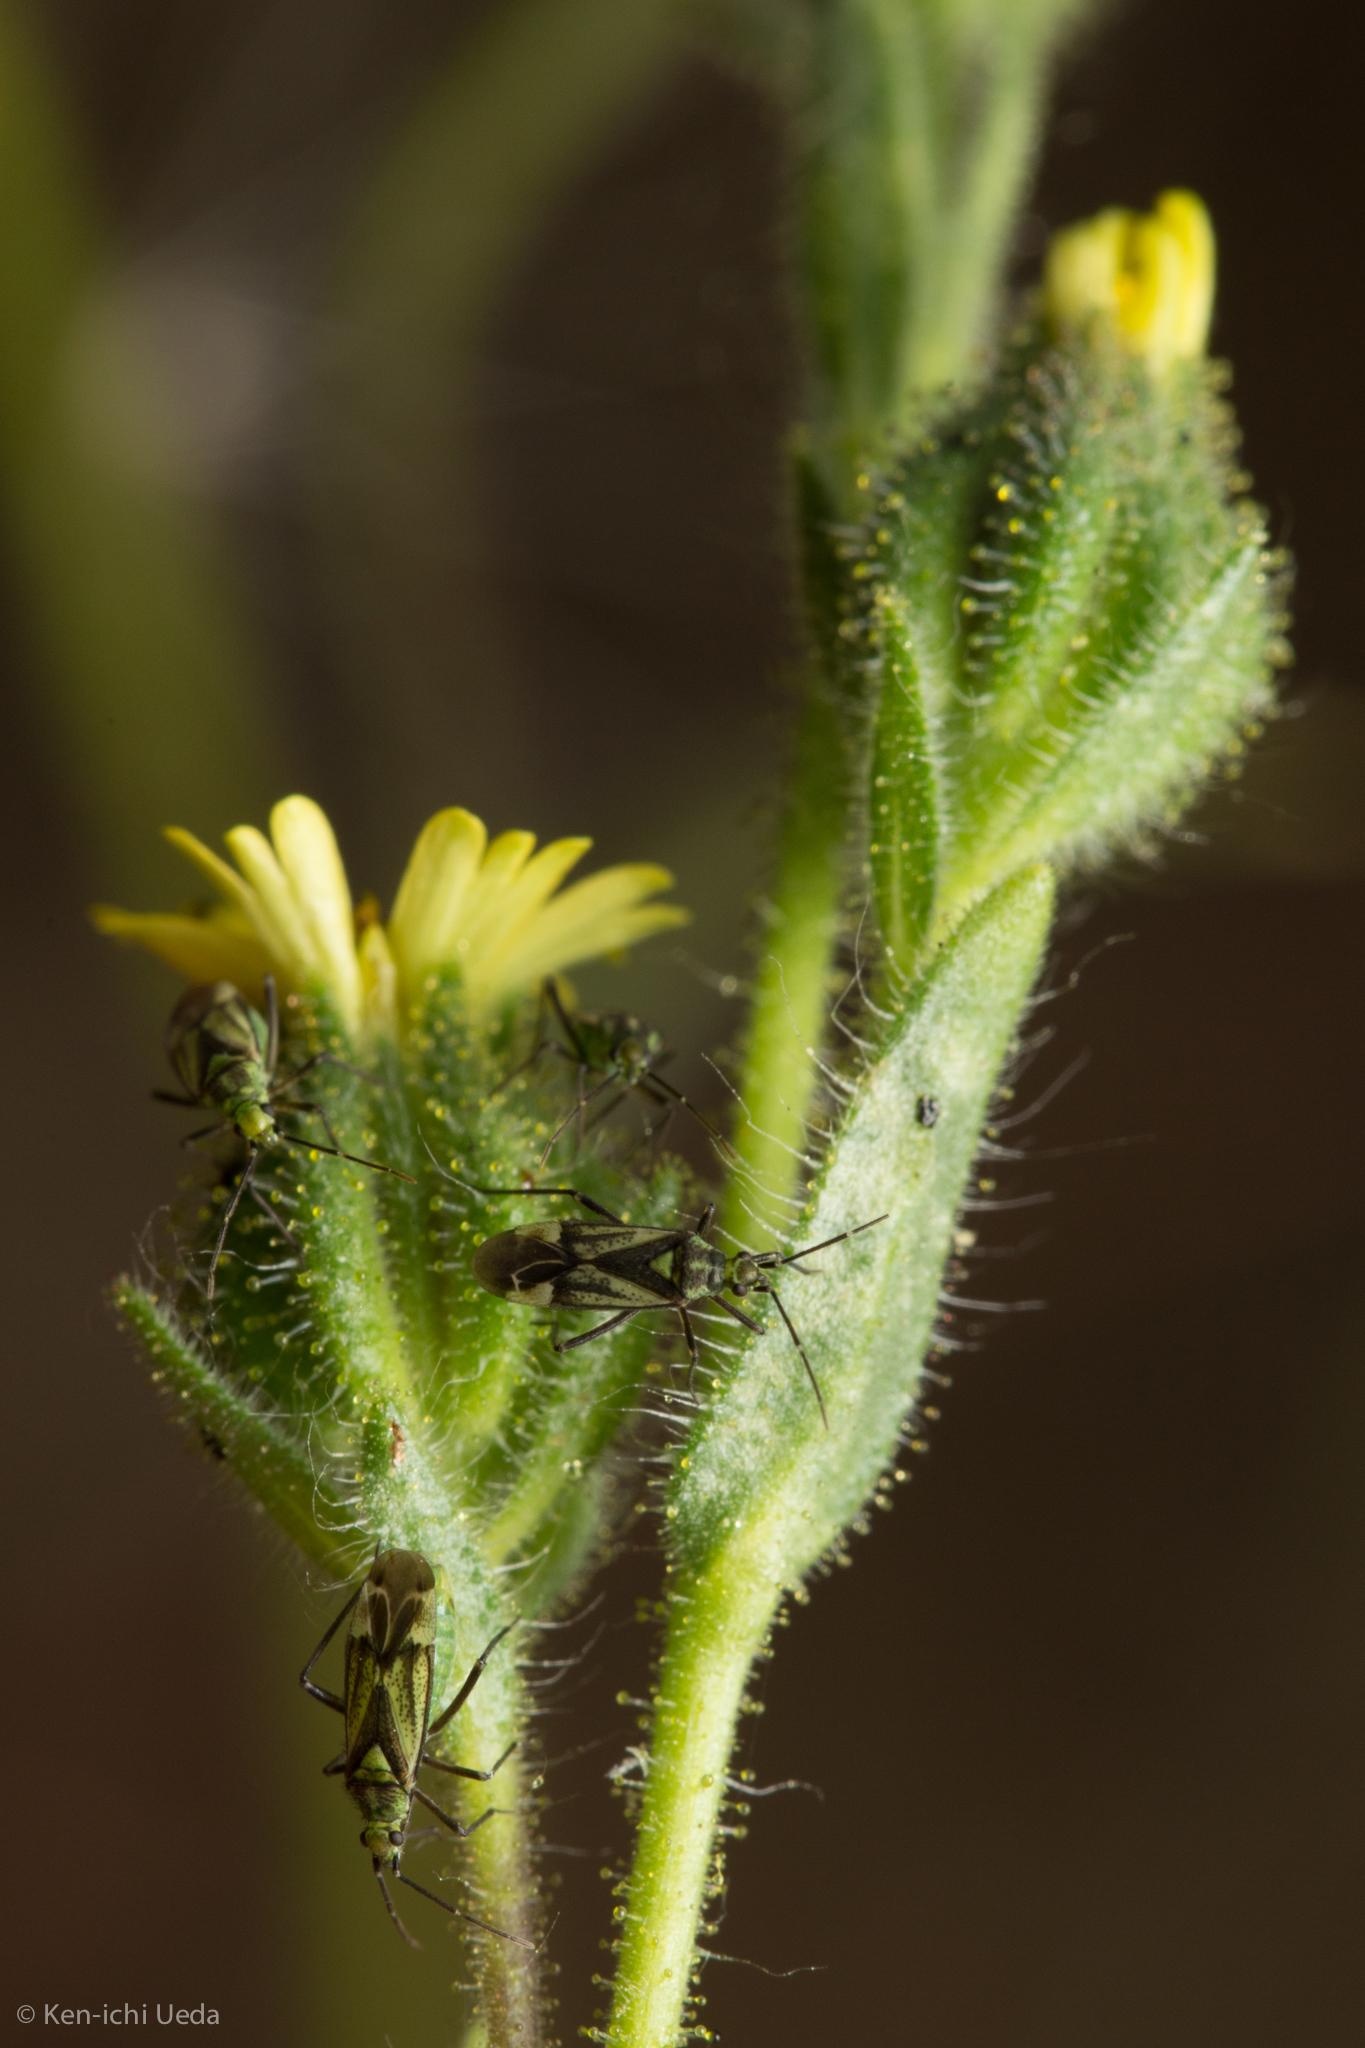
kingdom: Plantae
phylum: Tracheophyta
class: Magnoliopsida
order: Asterales
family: Asteraceae
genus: Madia
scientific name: Madia gracilis
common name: Grassy tarweed
